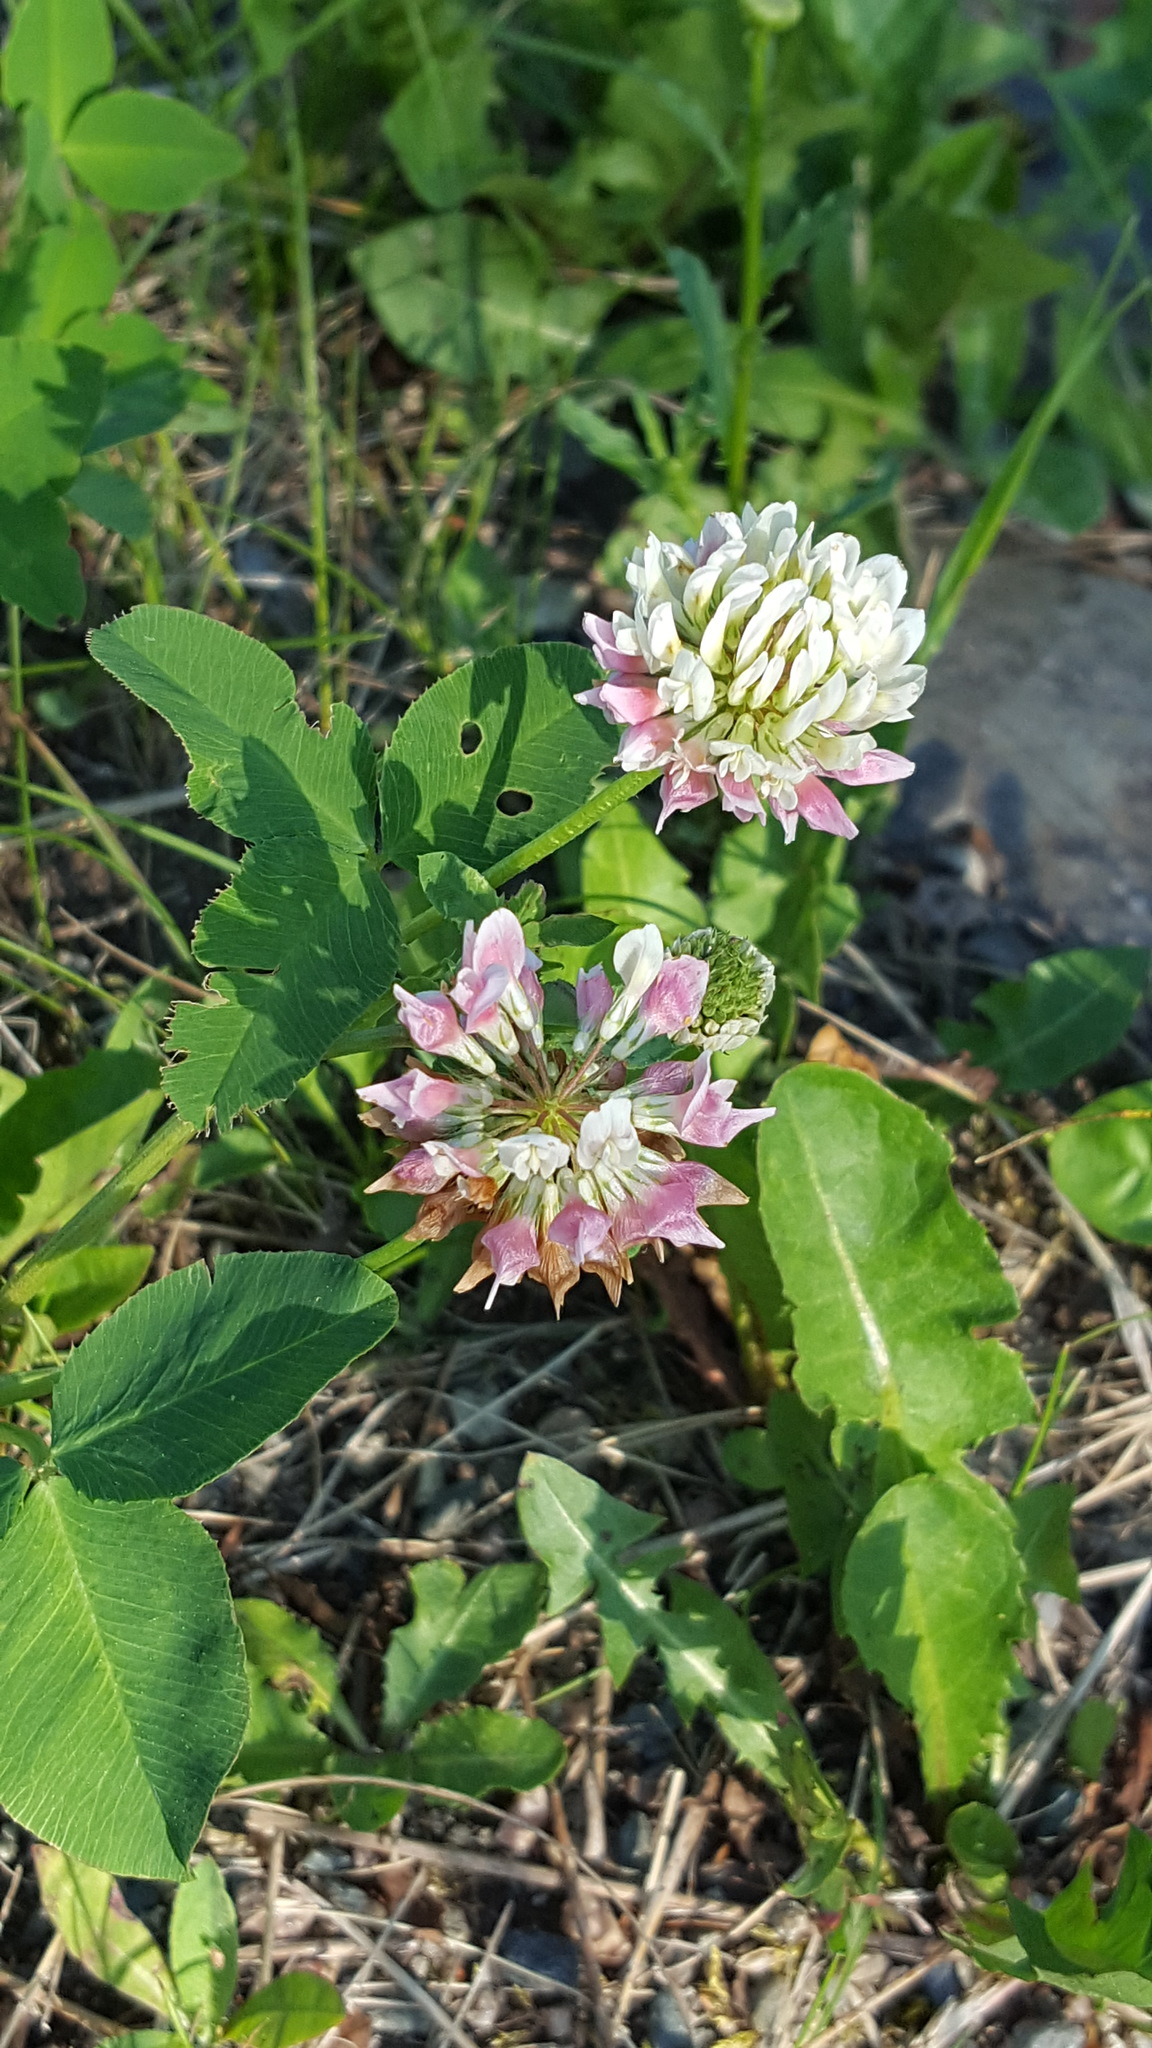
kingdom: Plantae
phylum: Tracheophyta
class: Magnoliopsida
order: Fabales
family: Fabaceae
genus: Trifolium
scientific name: Trifolium hybridum
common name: Alsike clover
